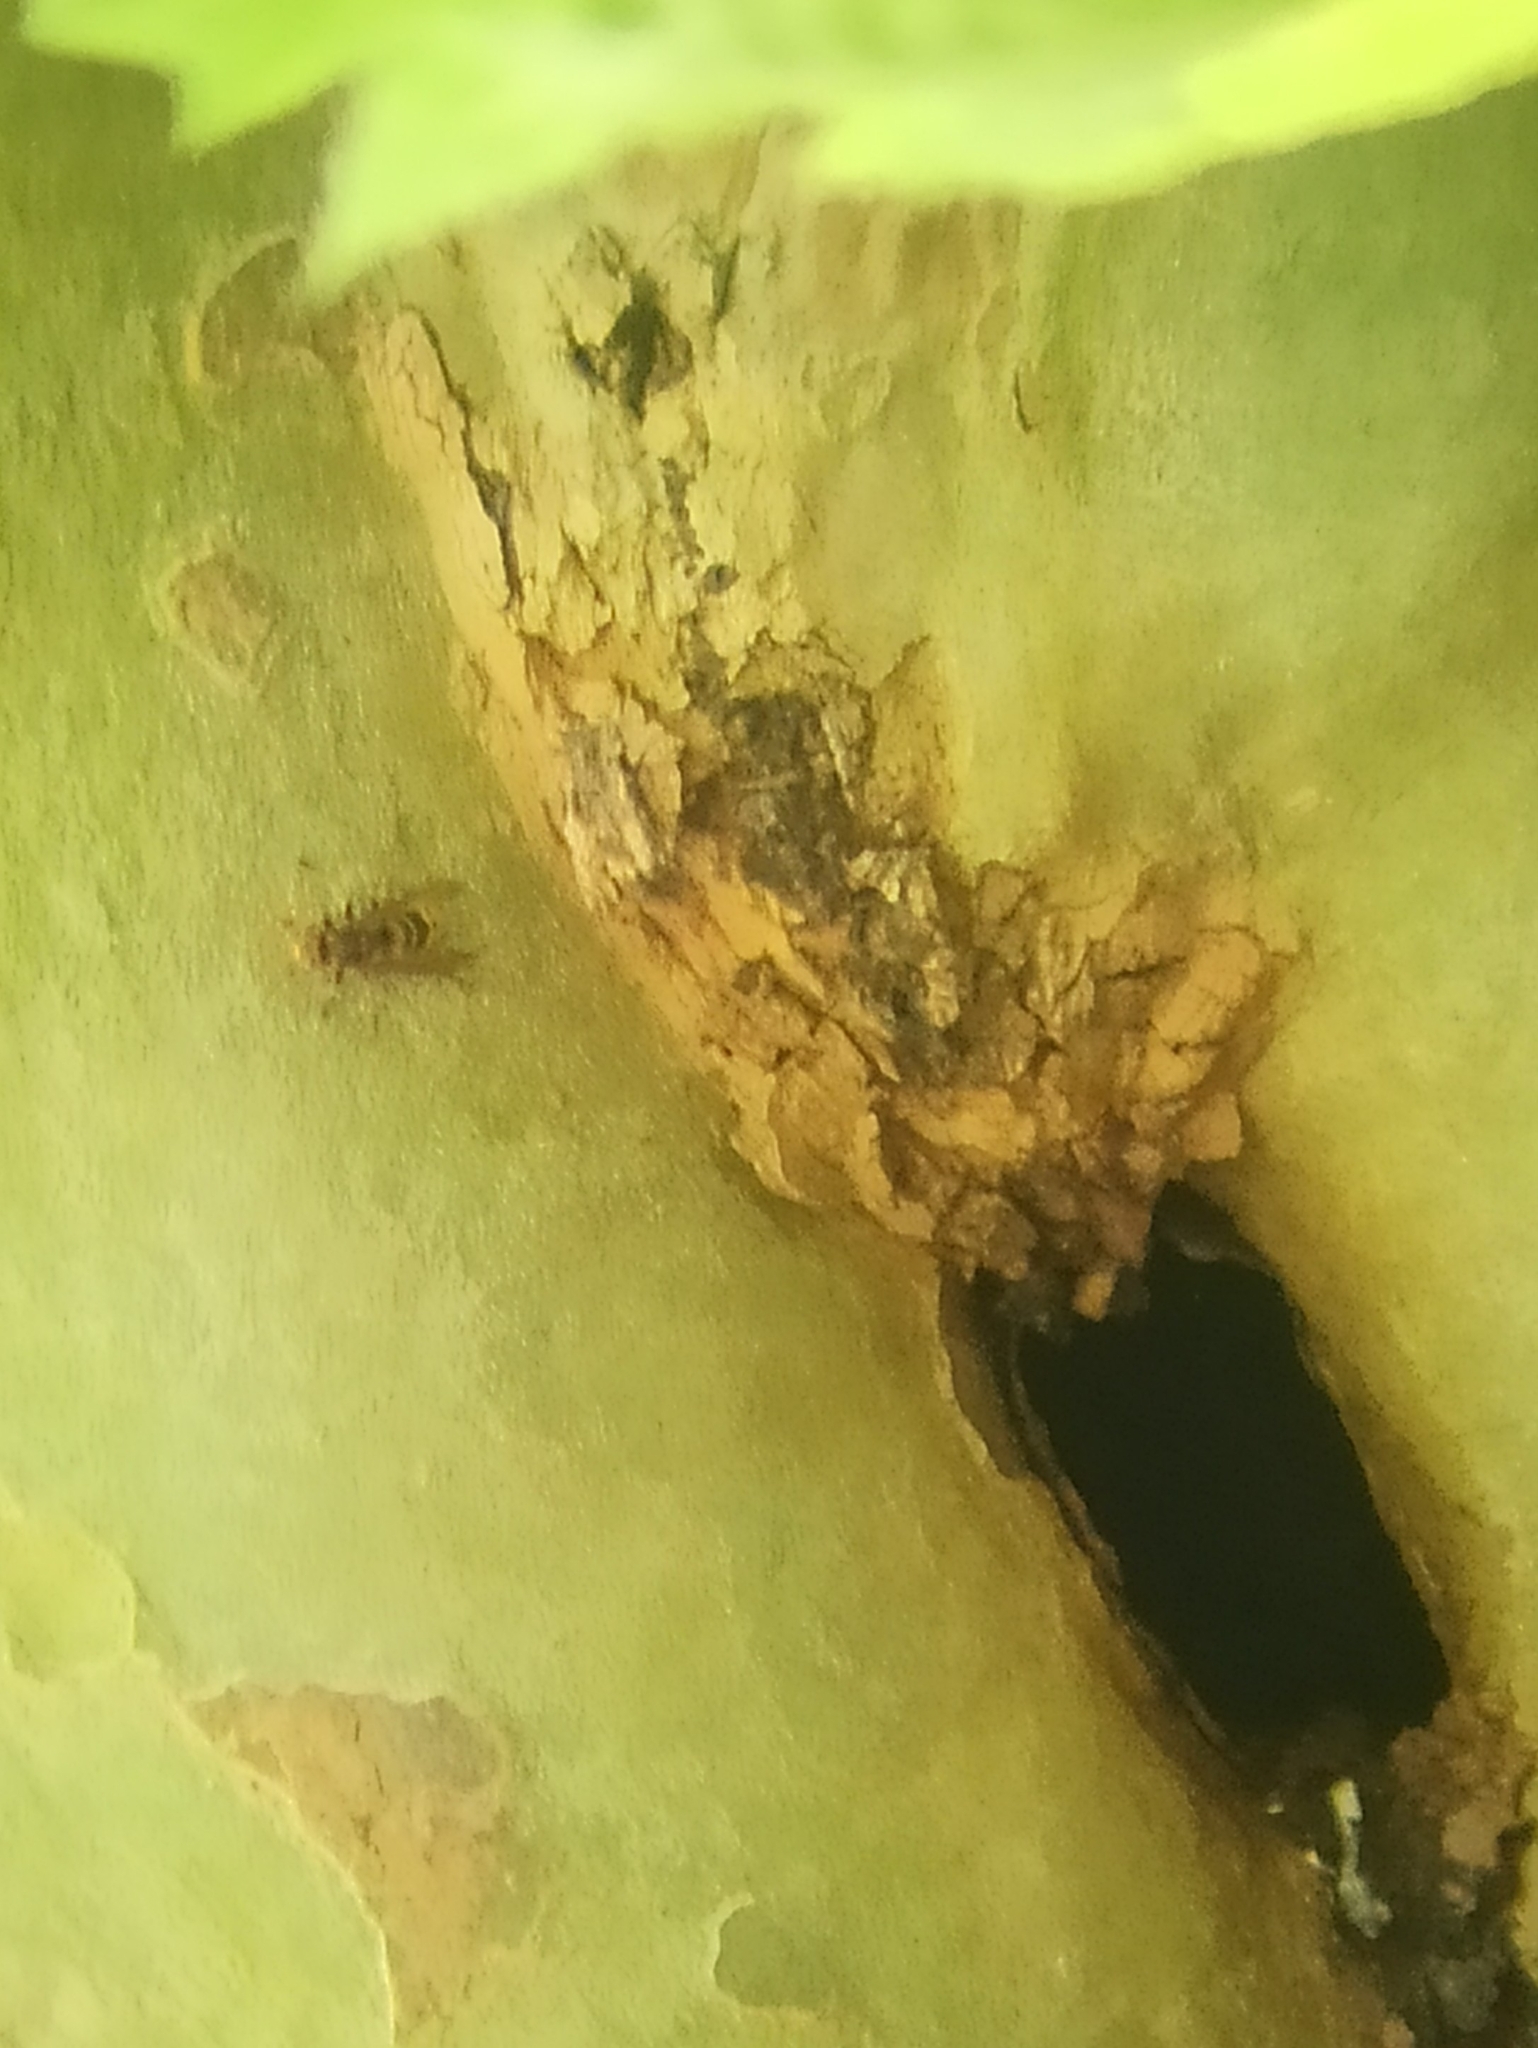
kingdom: Animalia
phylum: Arthropoda
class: Insecta
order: Hymenoptera
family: Vespidae
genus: Vespa
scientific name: Vespa crabro
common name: Hornet
